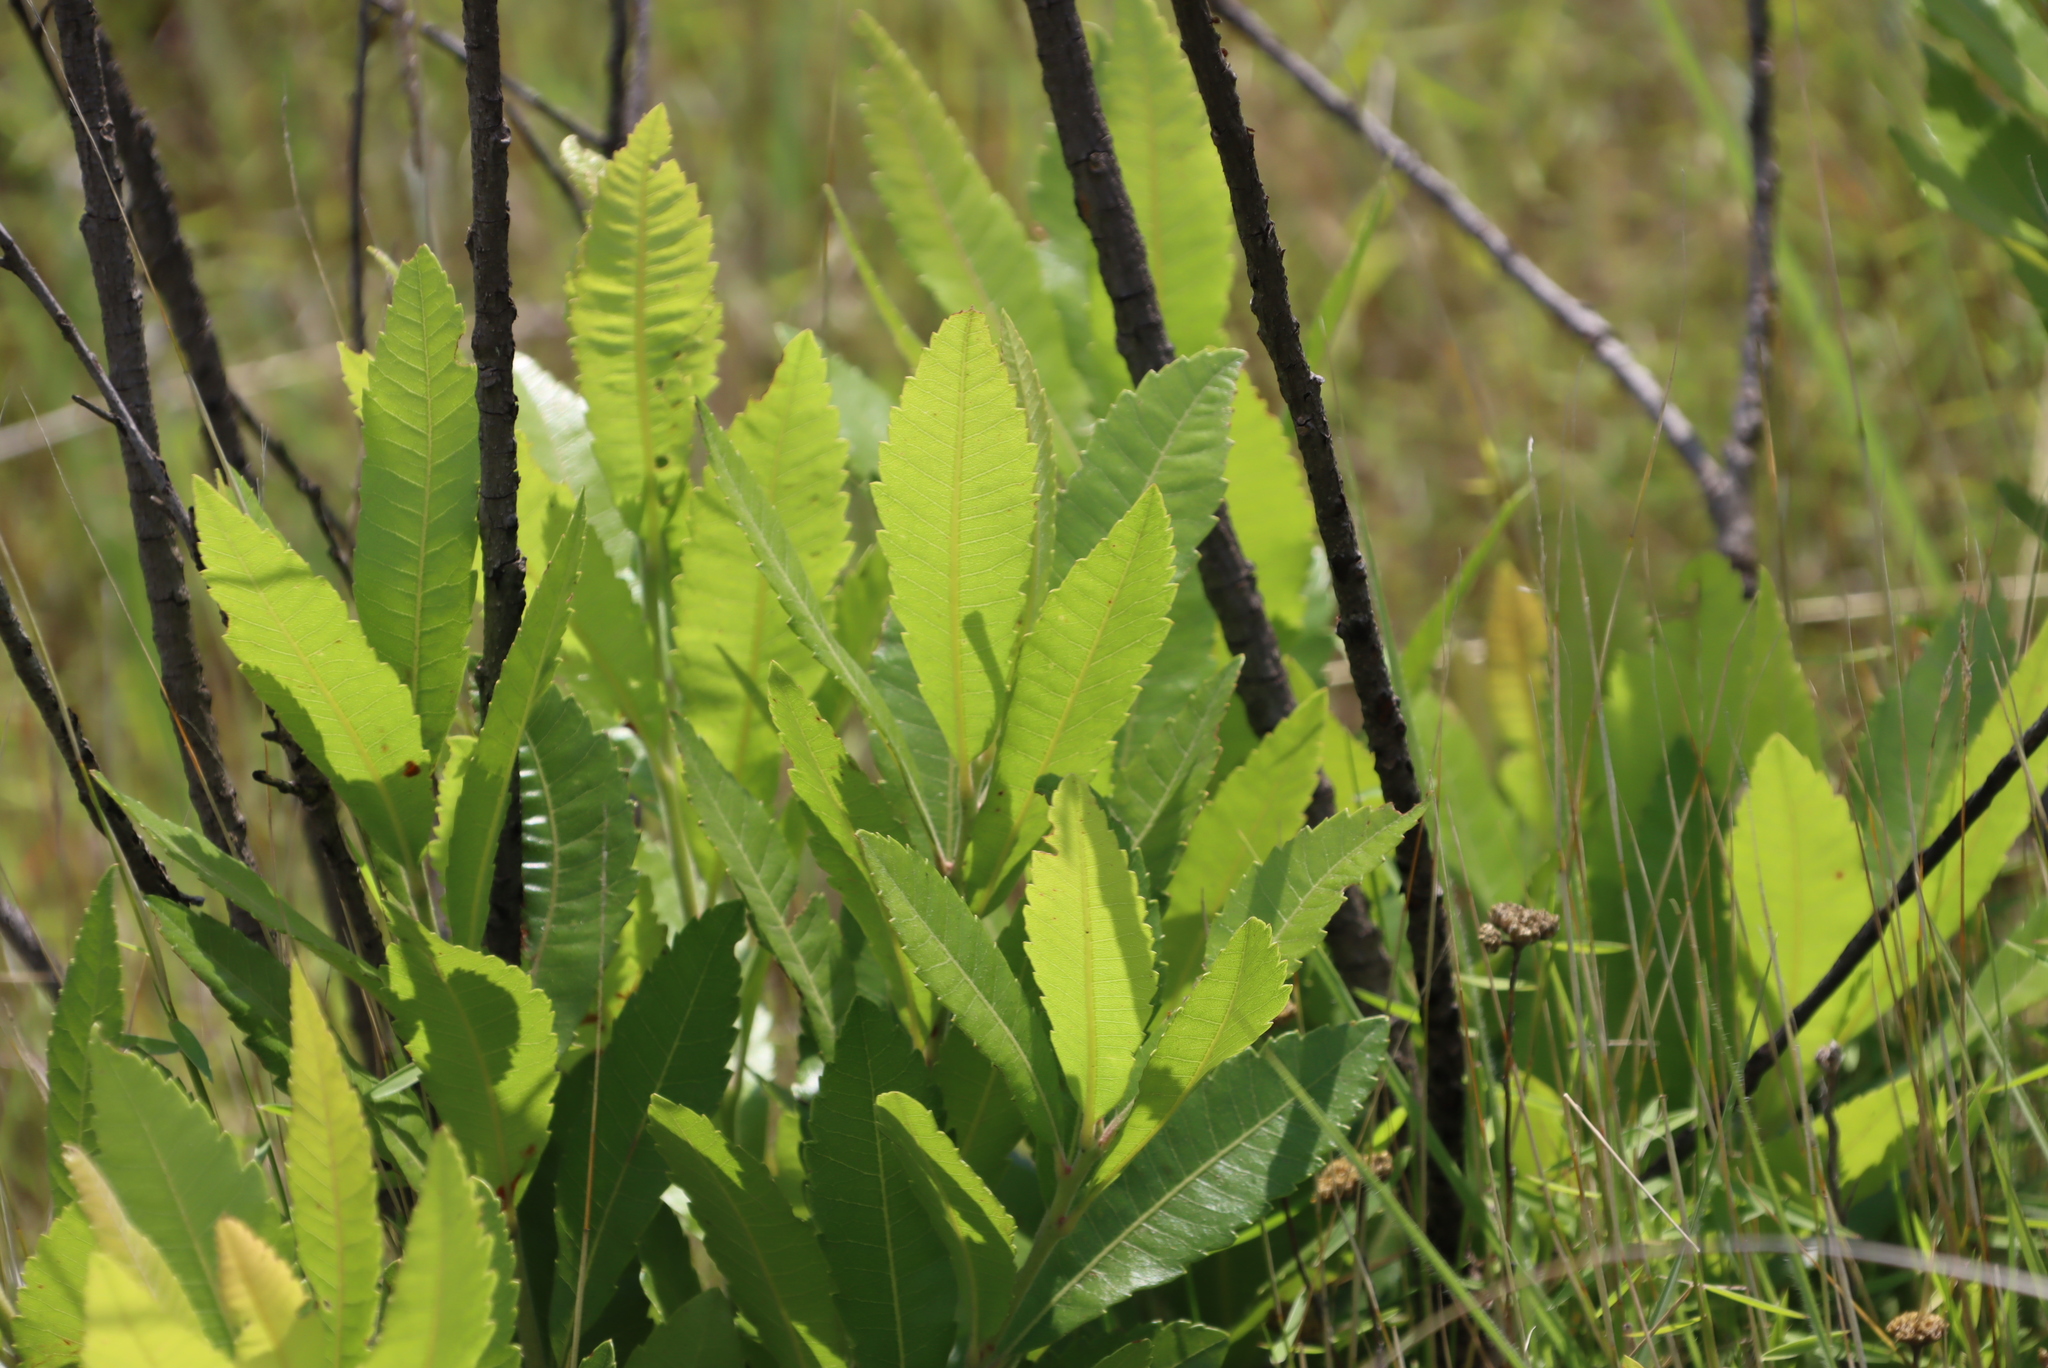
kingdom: Plantae
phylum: Tracheophyta
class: Magnoliopsida
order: Fagales
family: Myricaceae
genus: Morella
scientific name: Morella pilulifera
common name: Broad-leaved waxberry
